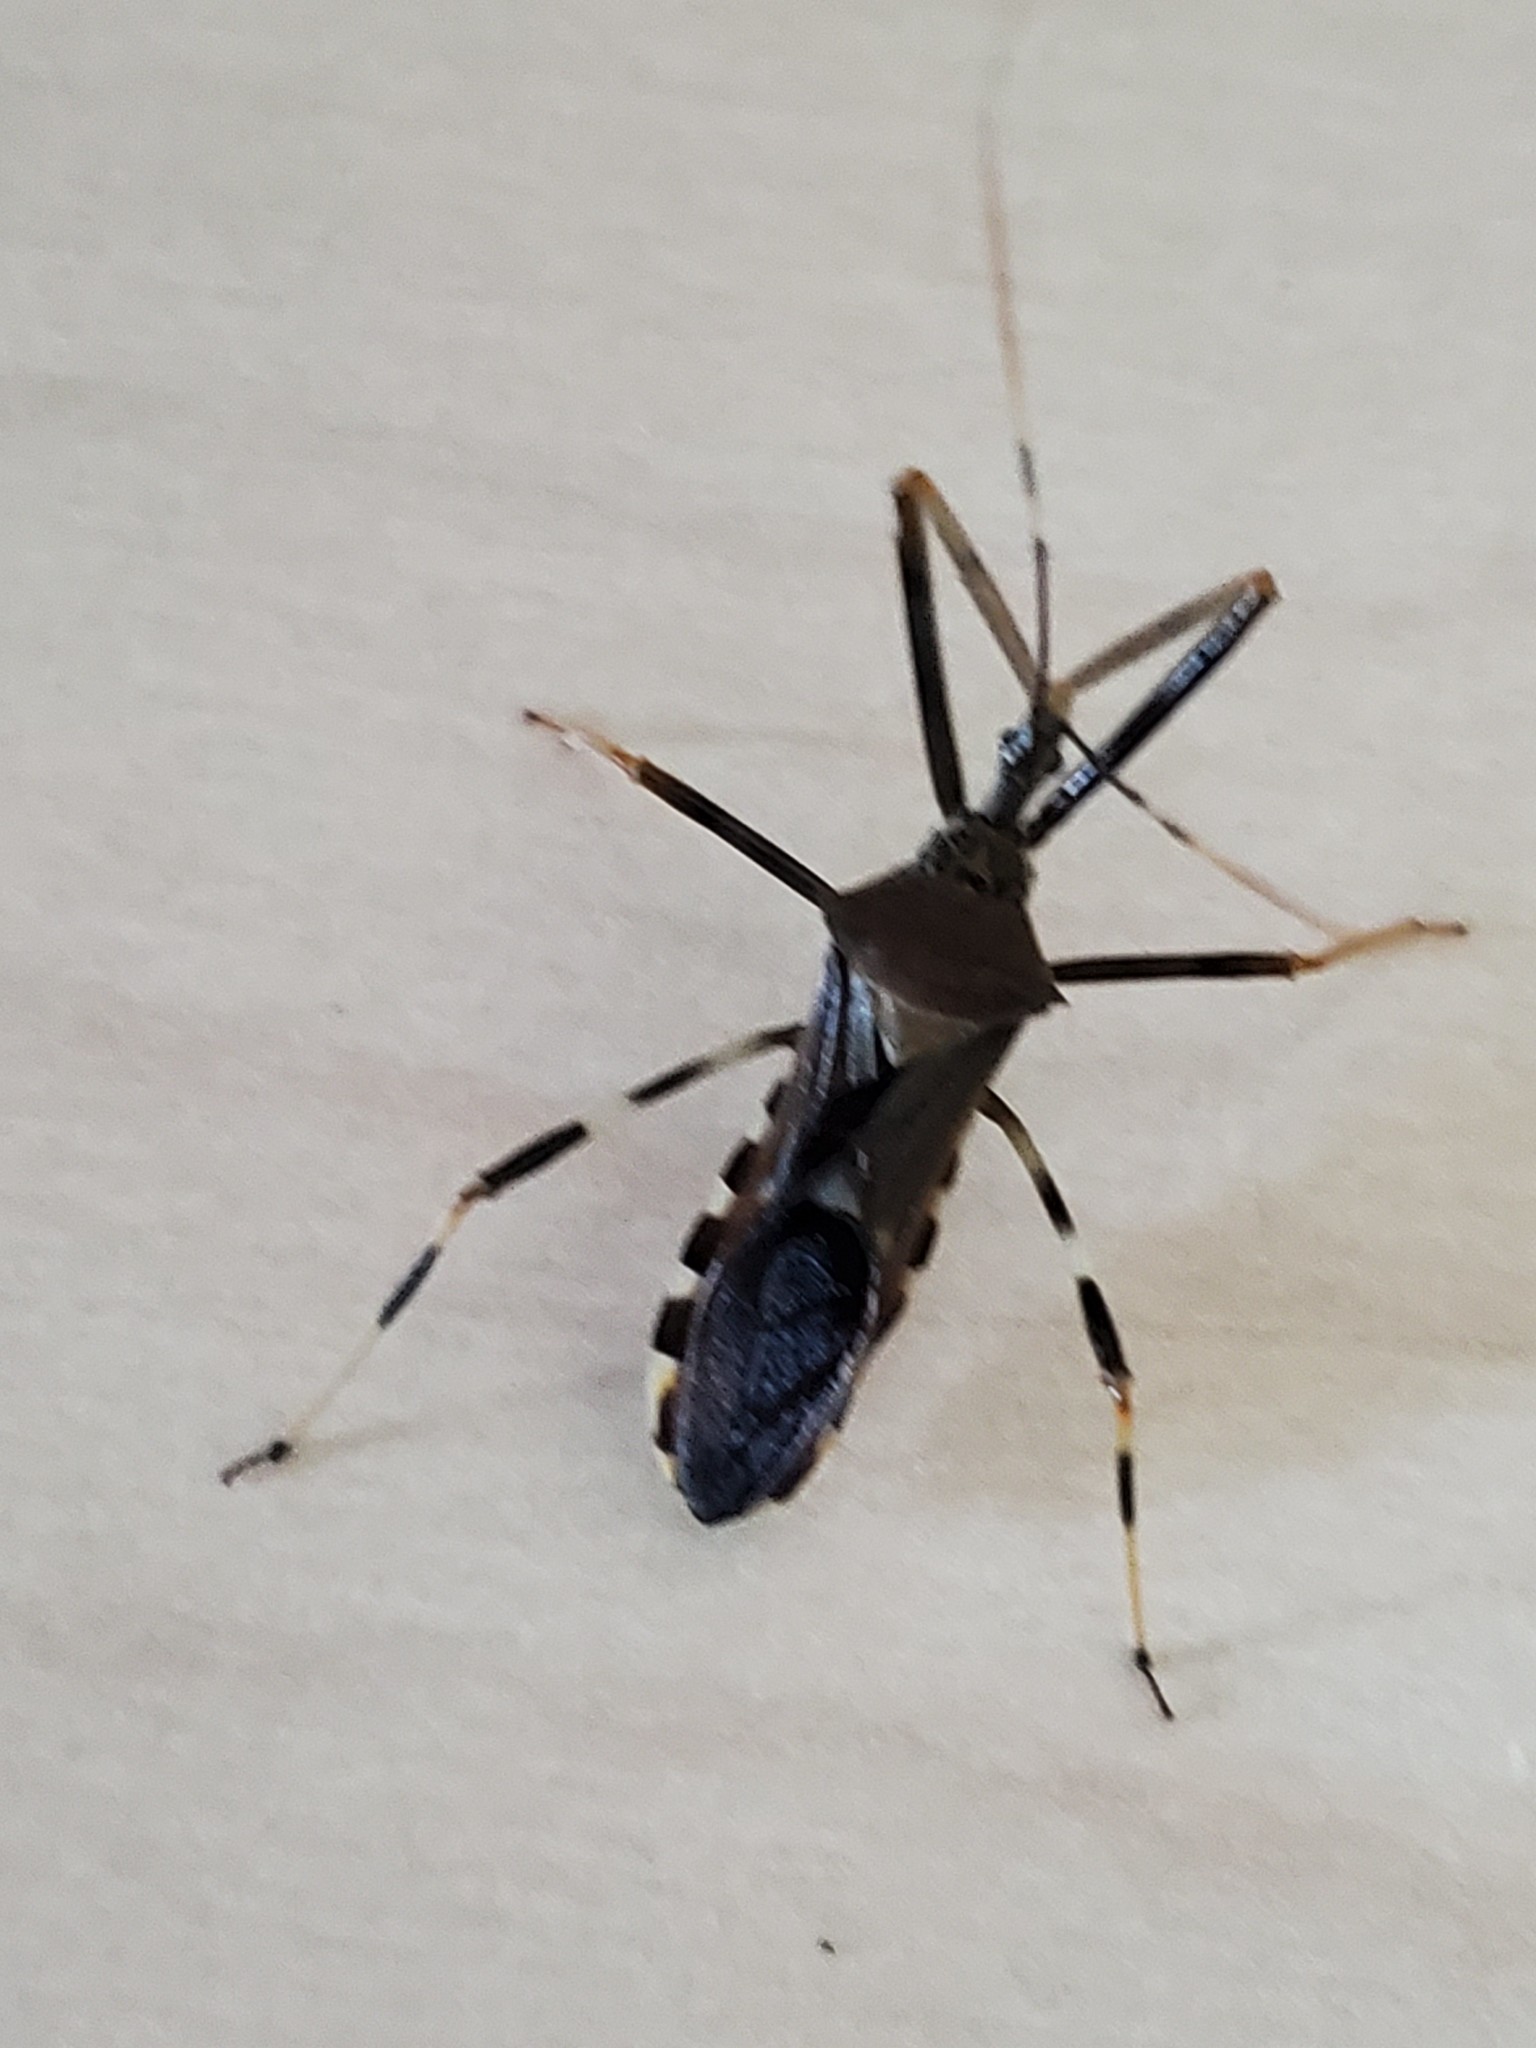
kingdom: Animalia
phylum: Arthropoda
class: Insecta
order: Hemiptera
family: Reduviidae
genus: Zelus
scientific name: Zelus janus
